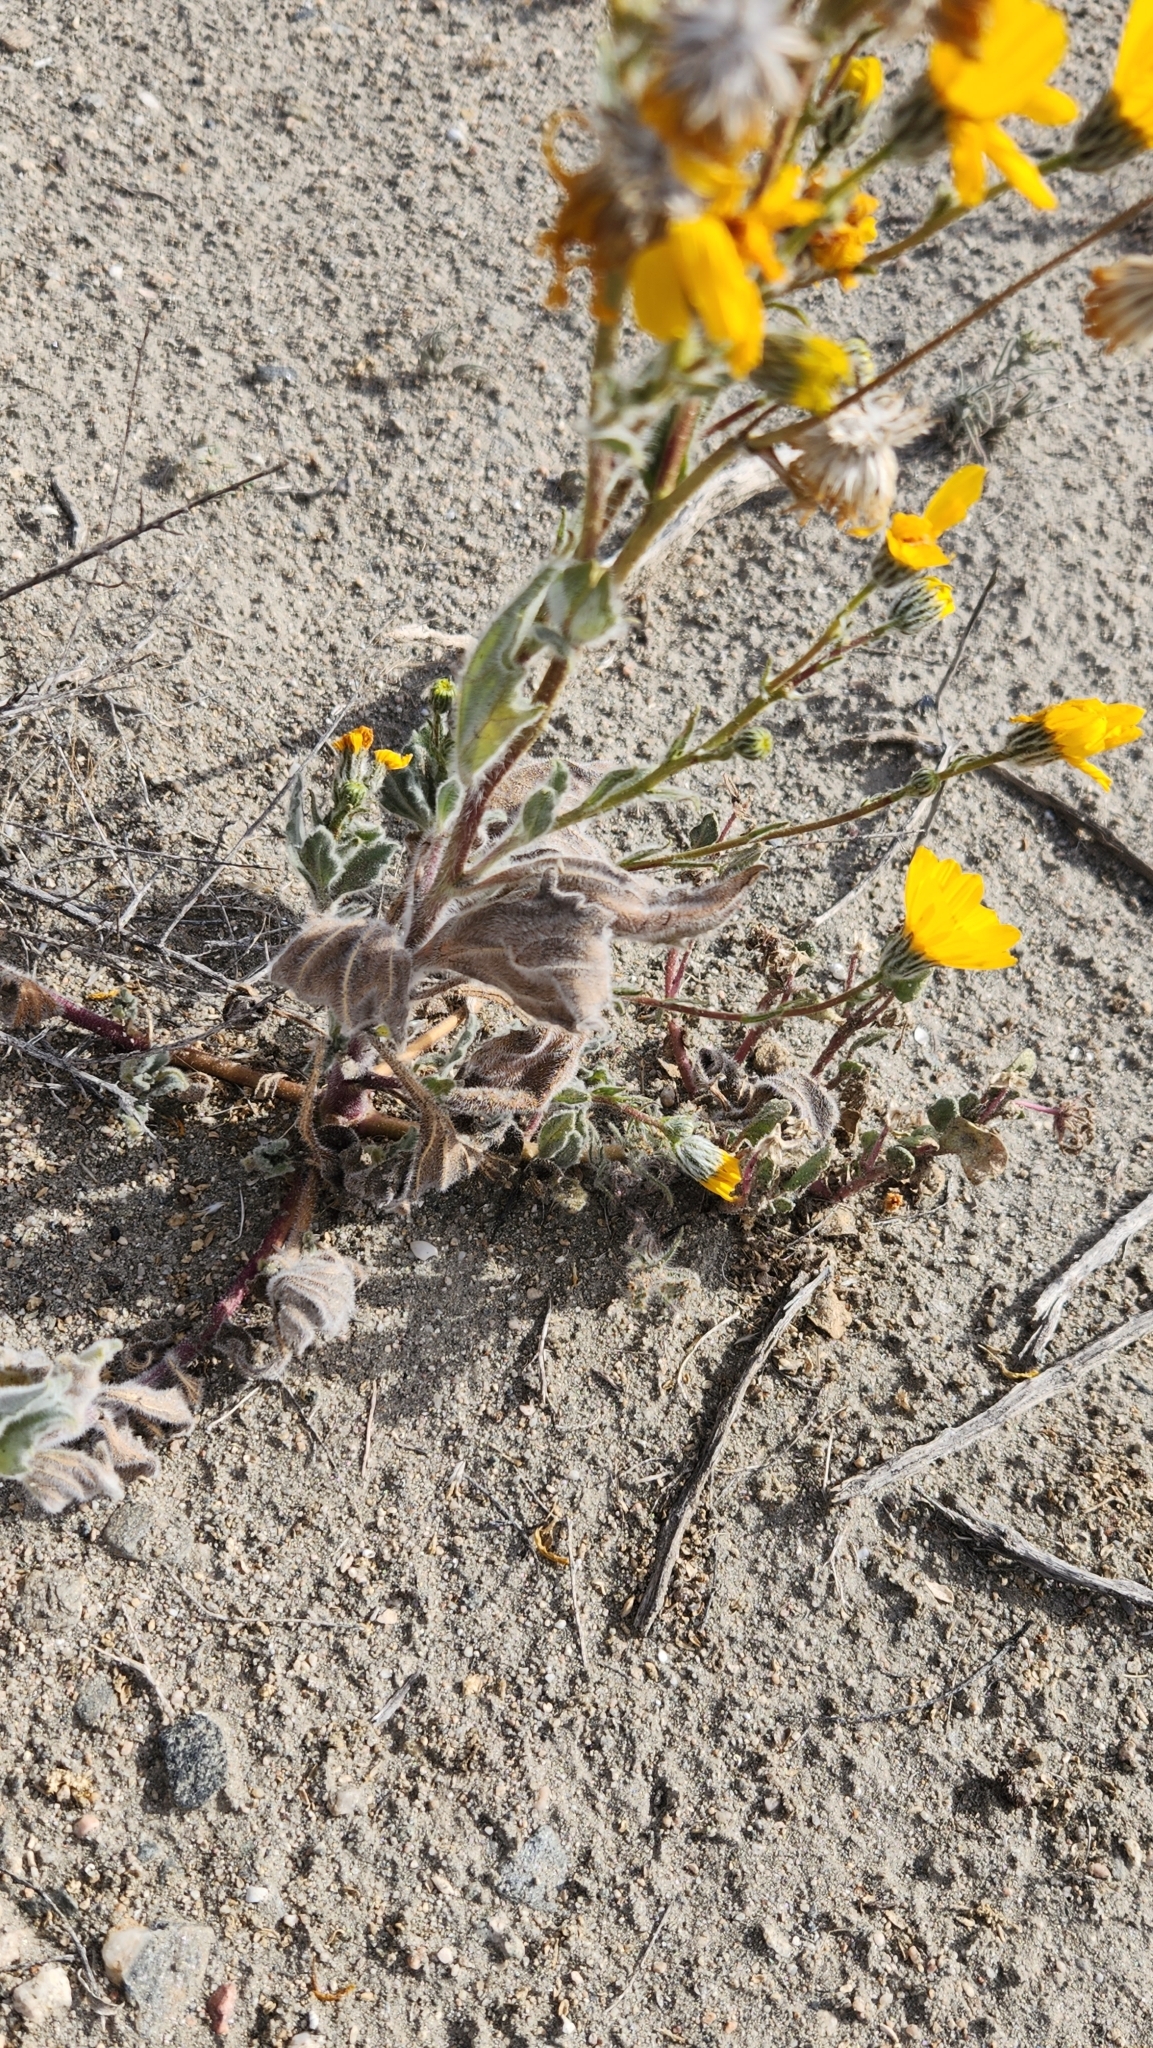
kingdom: Plantae
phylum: Tracheophyta
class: Magnoliopsida
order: Asterales
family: Asteraceae
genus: Geraea
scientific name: Geraea canescens
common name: Desert-gold
